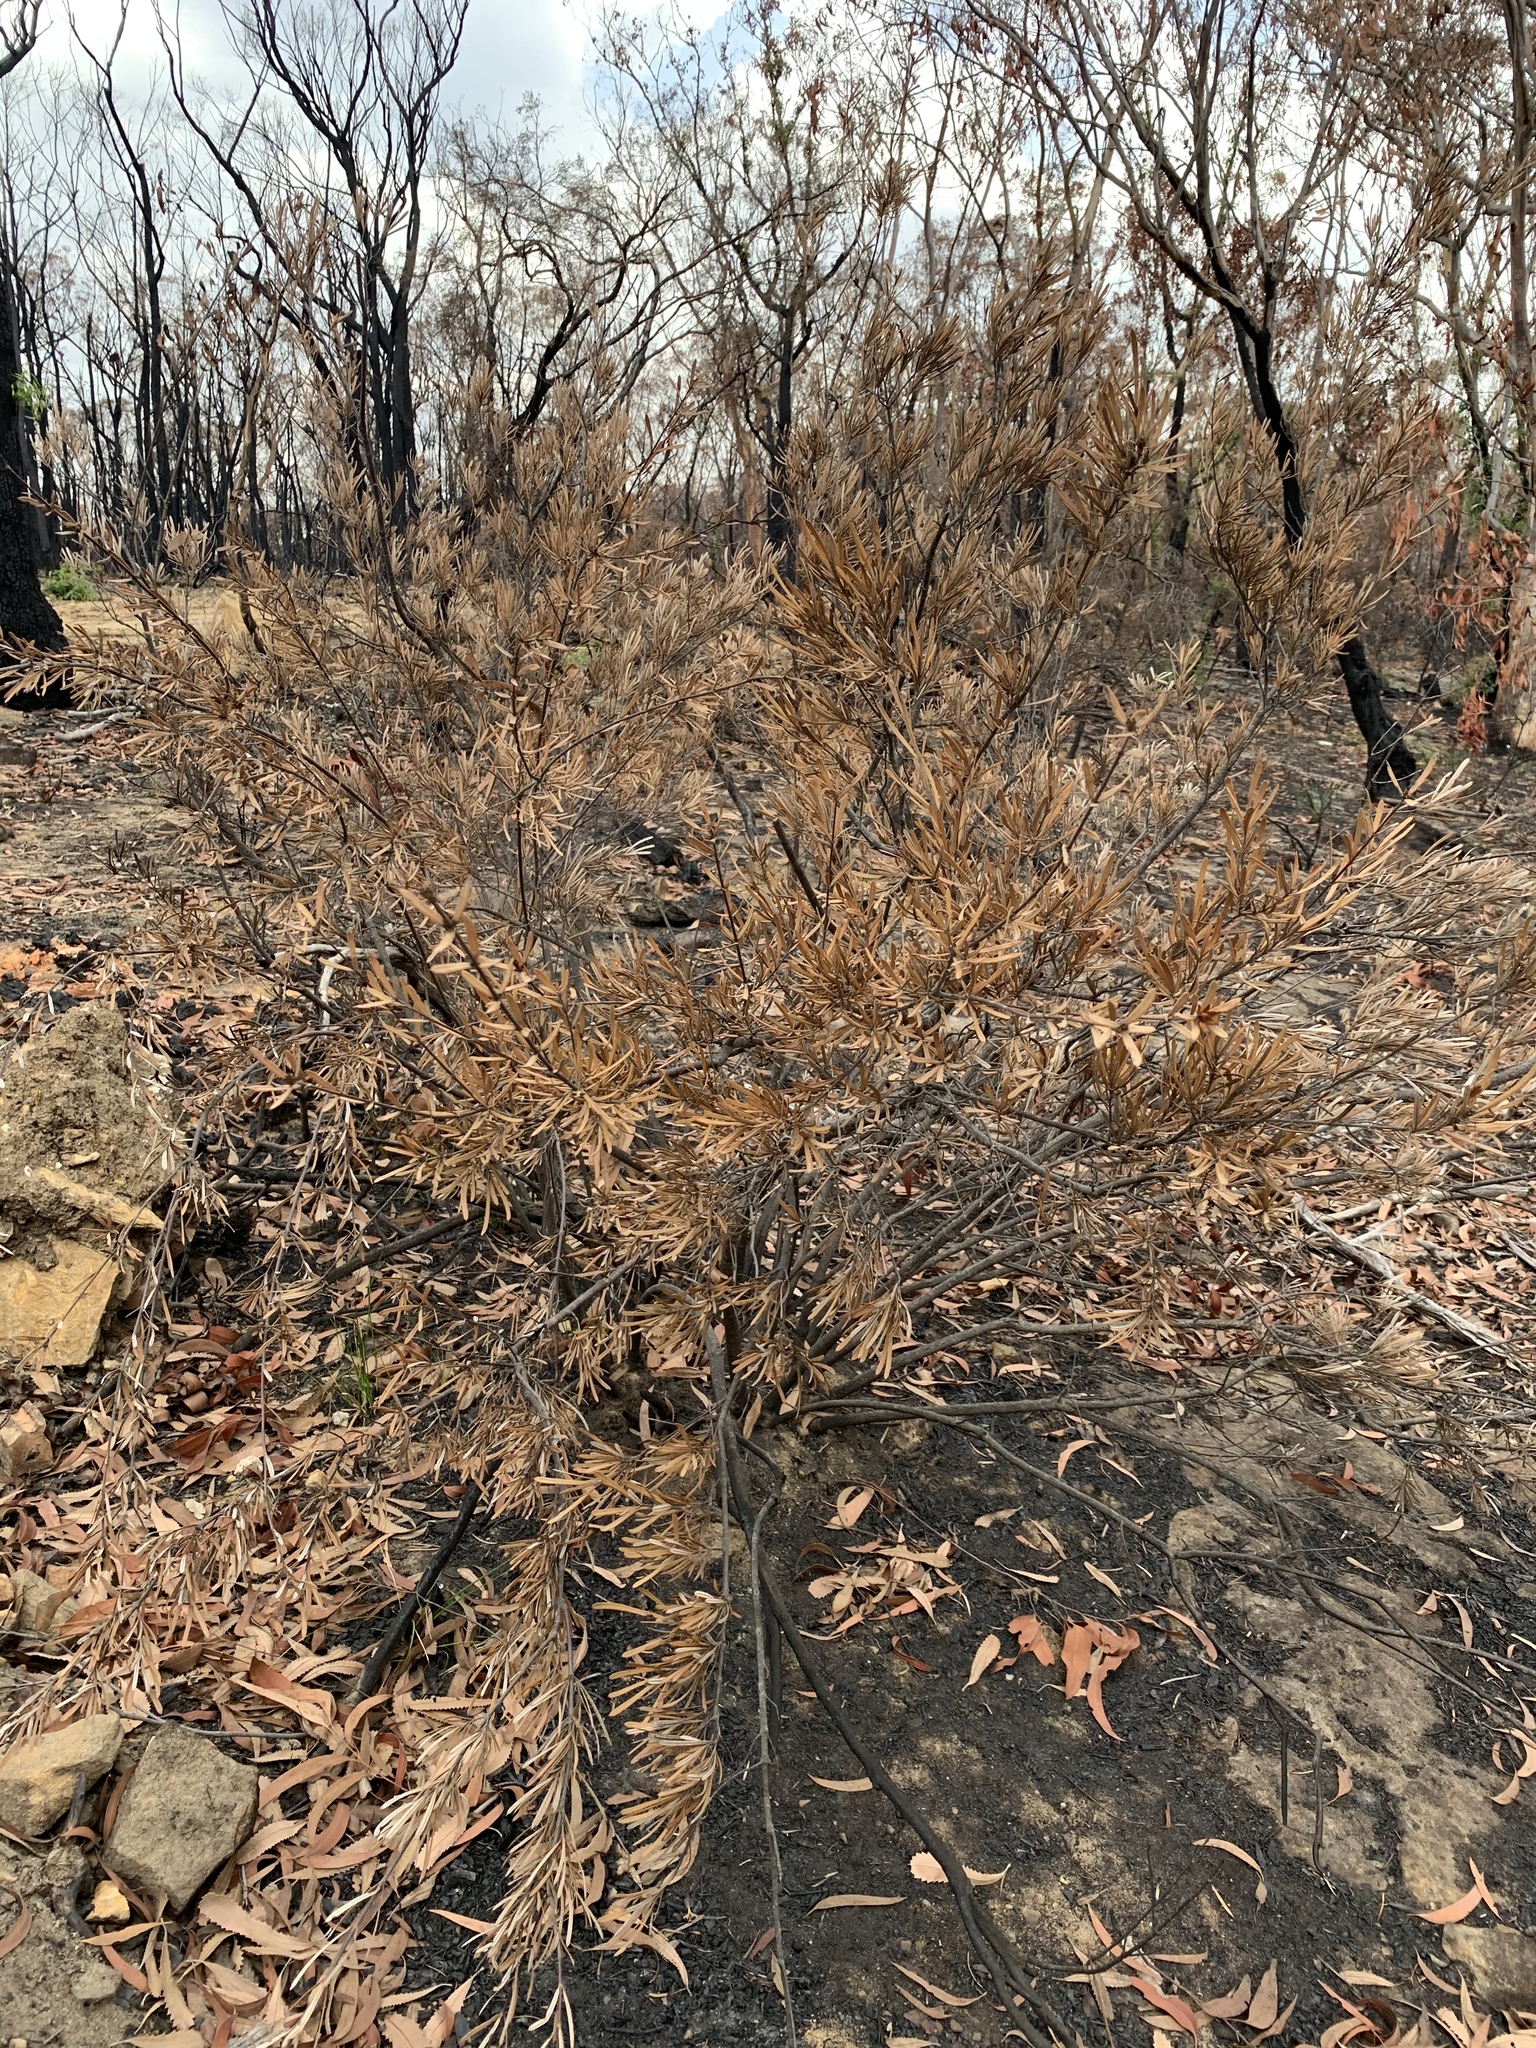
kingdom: Plantae
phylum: Tracheophyta
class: Magnoliopsida
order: Proteales
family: Proteaceae
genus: Lambertia
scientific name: Lambertia formosa
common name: Mountain-devil
